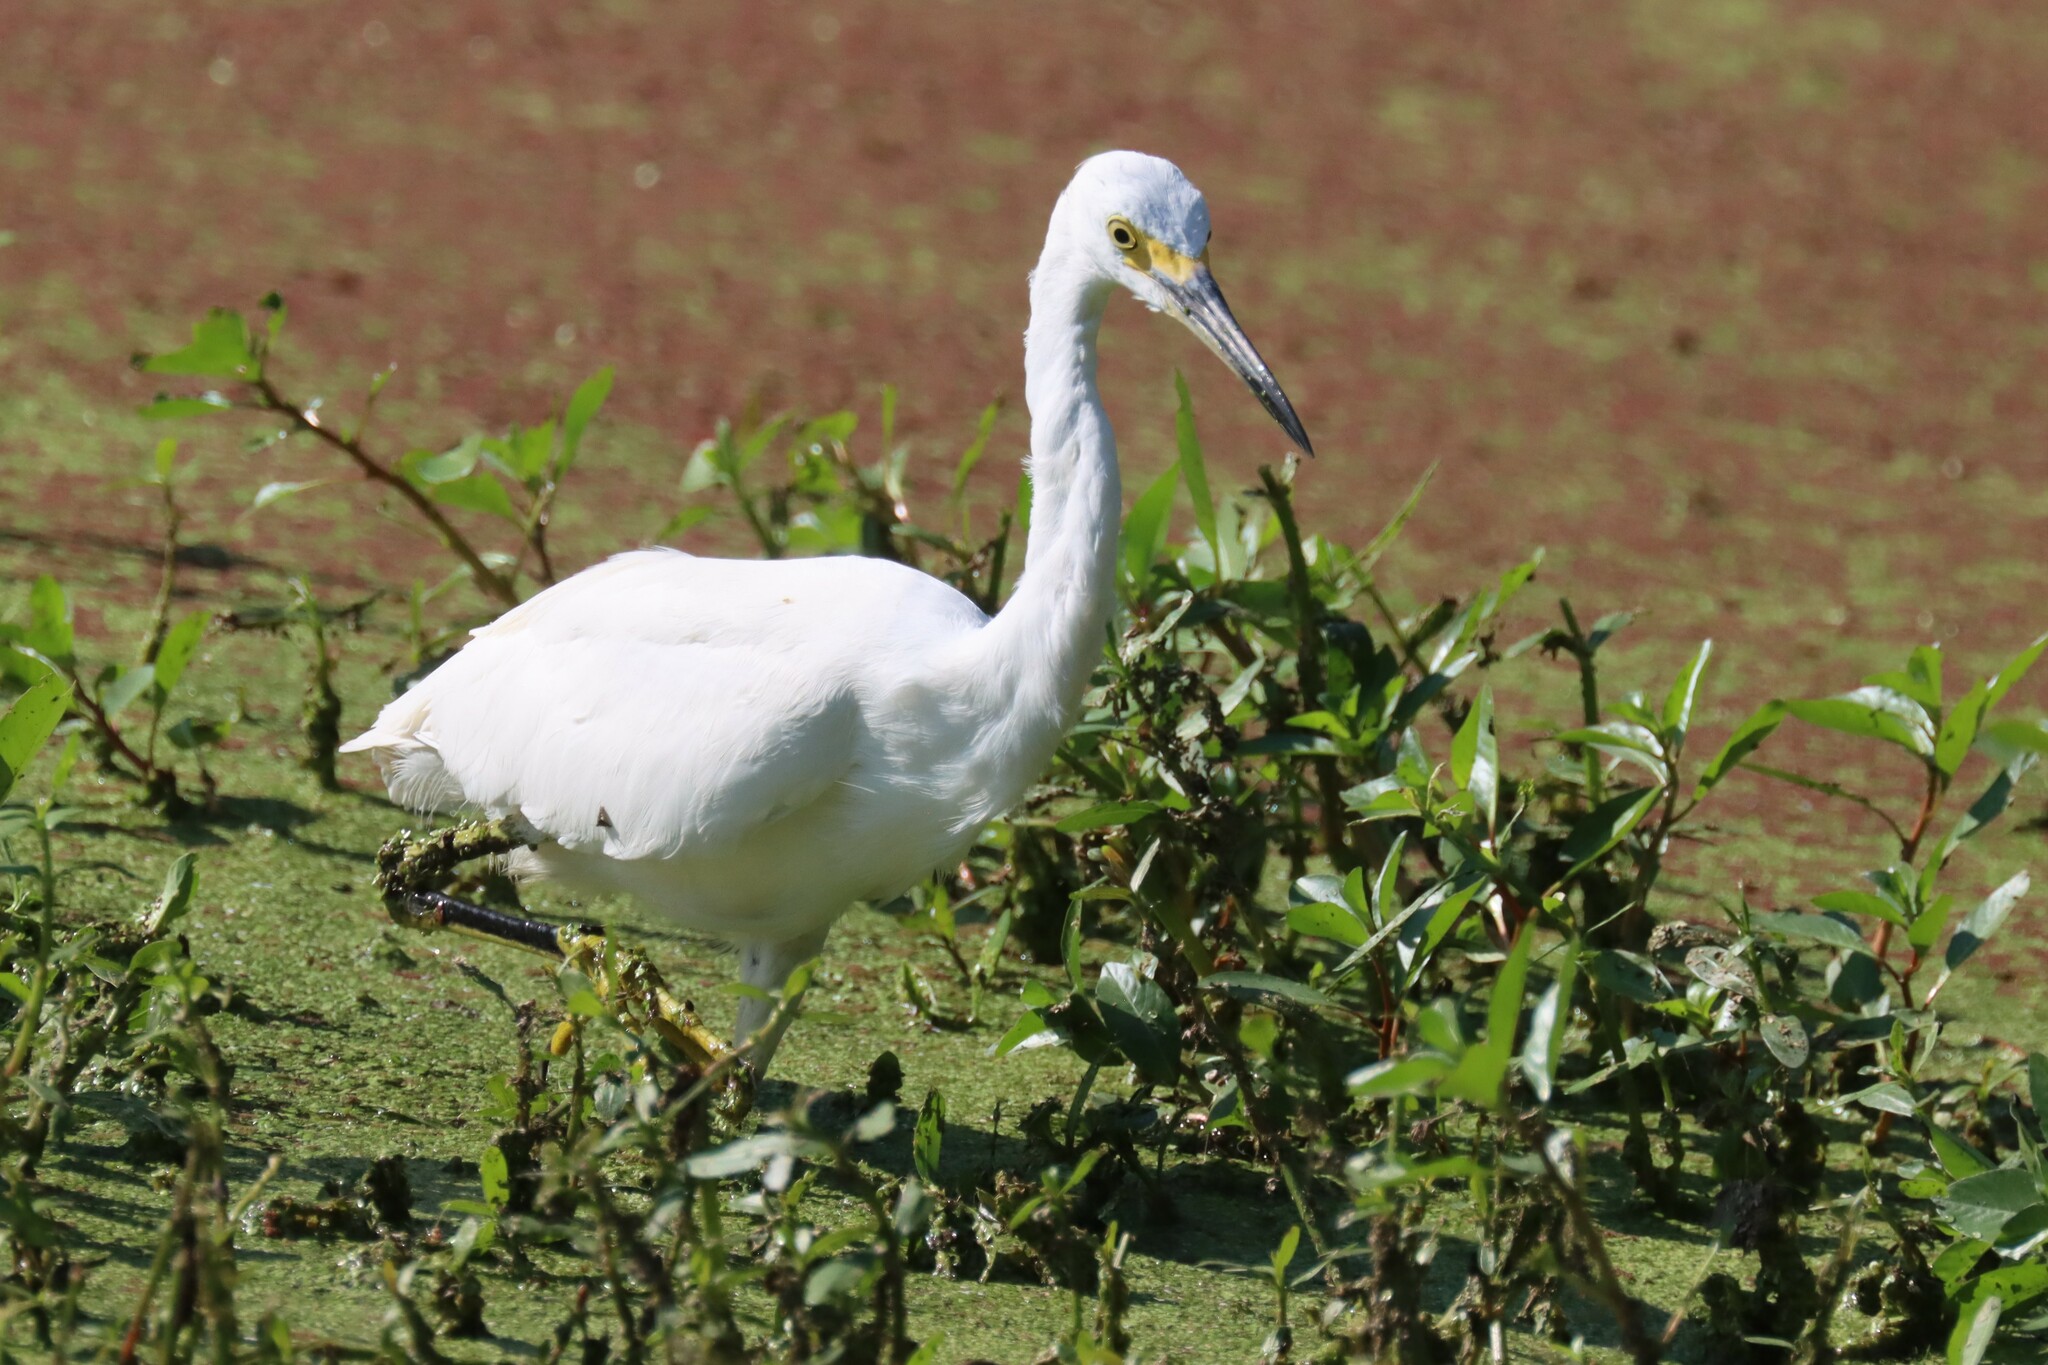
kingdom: Animalia
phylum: Chordata
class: Aves
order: Pelecaniformes
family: Ardeidae
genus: Egretta
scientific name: Egretta thula
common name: Snowy egret
